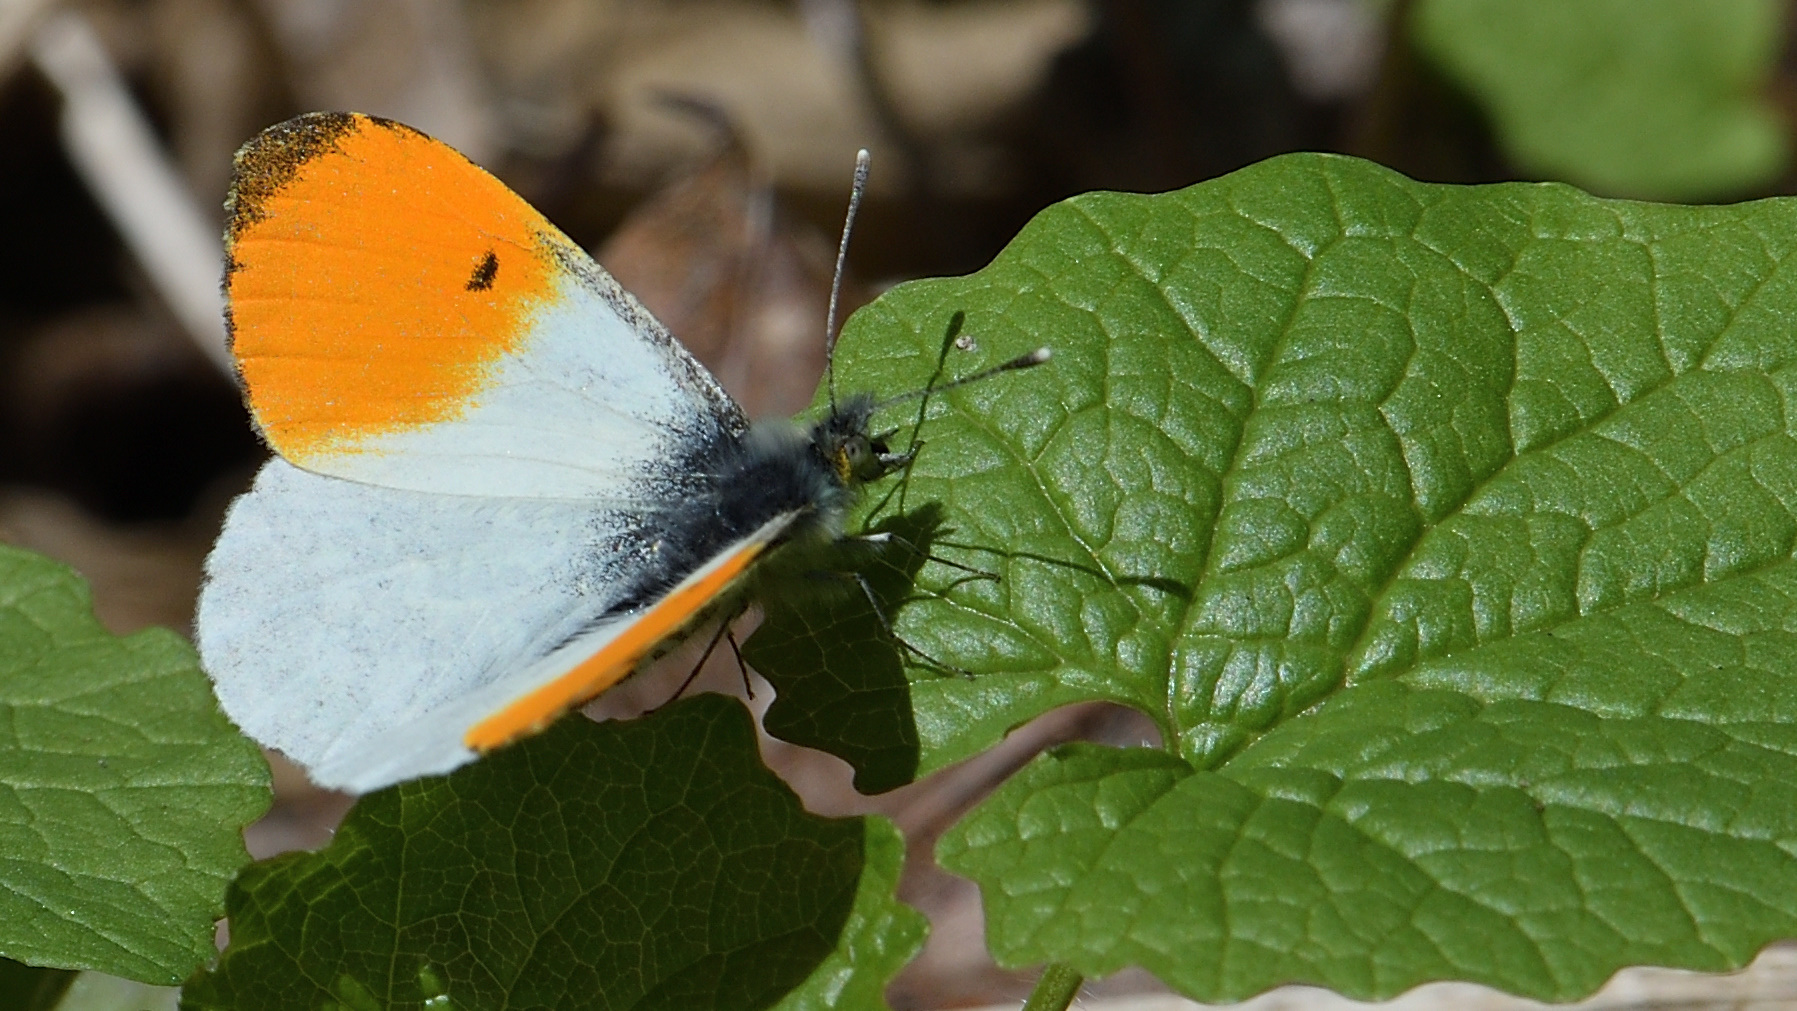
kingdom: Animalia
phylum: Arthropoda
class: Insecta
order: Lepidoptera
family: Pieridae
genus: Anthocharis
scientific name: Anthocharis cardamines
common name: Orange-tip
